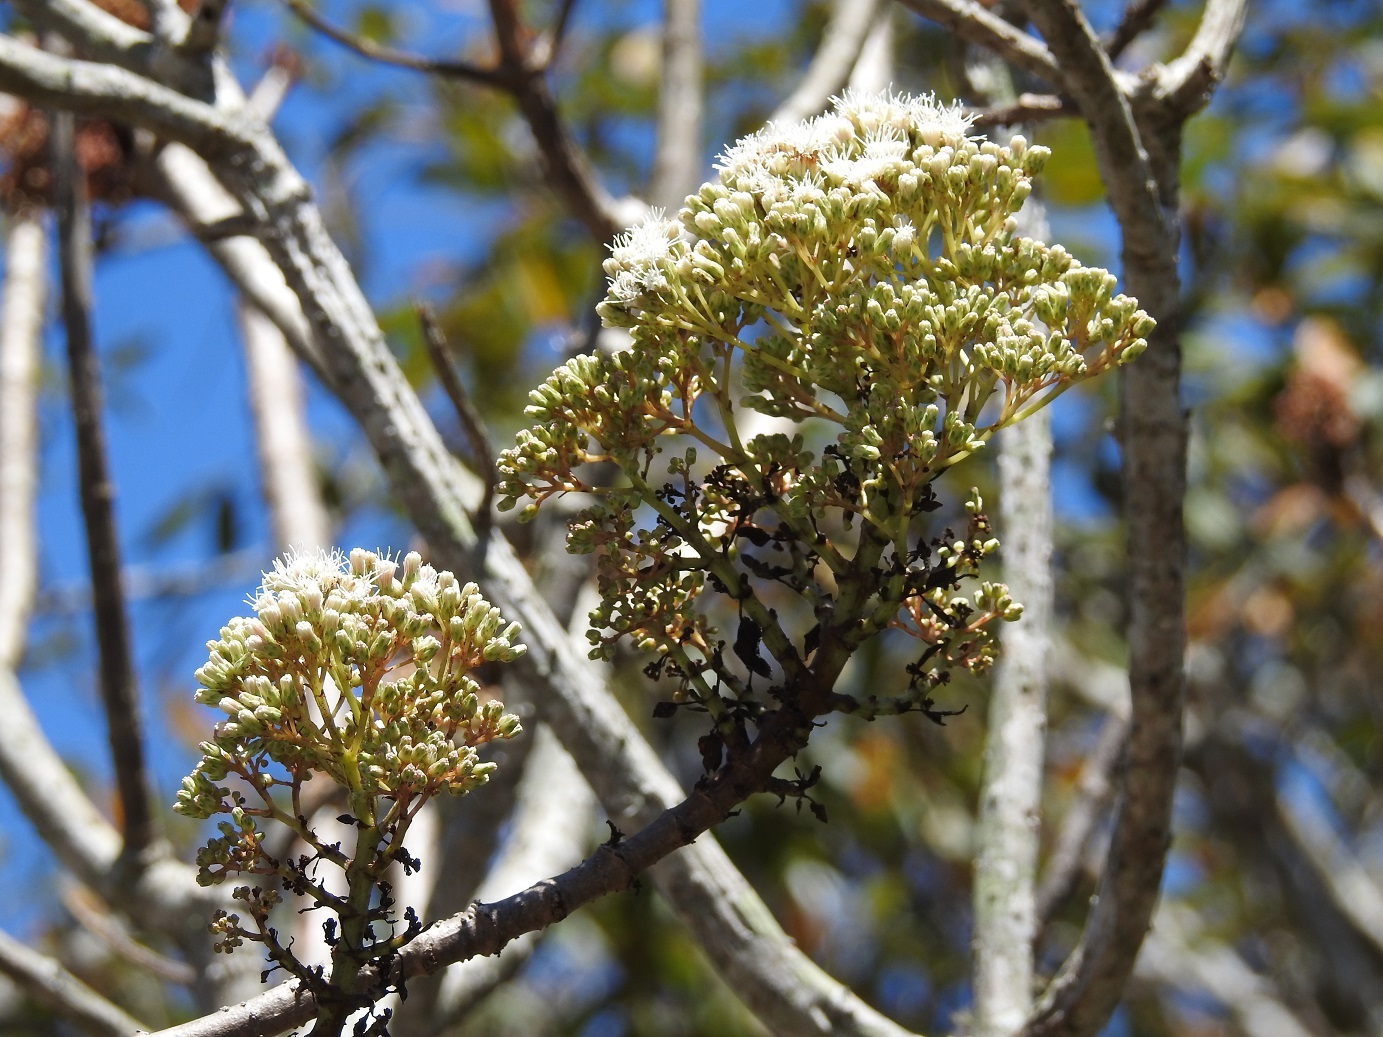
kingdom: Plantae
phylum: Tracheophyta
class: Magnoliopsida
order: Asterales
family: Asteraceae
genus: Ageratina
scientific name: Ageratina crassiramea
